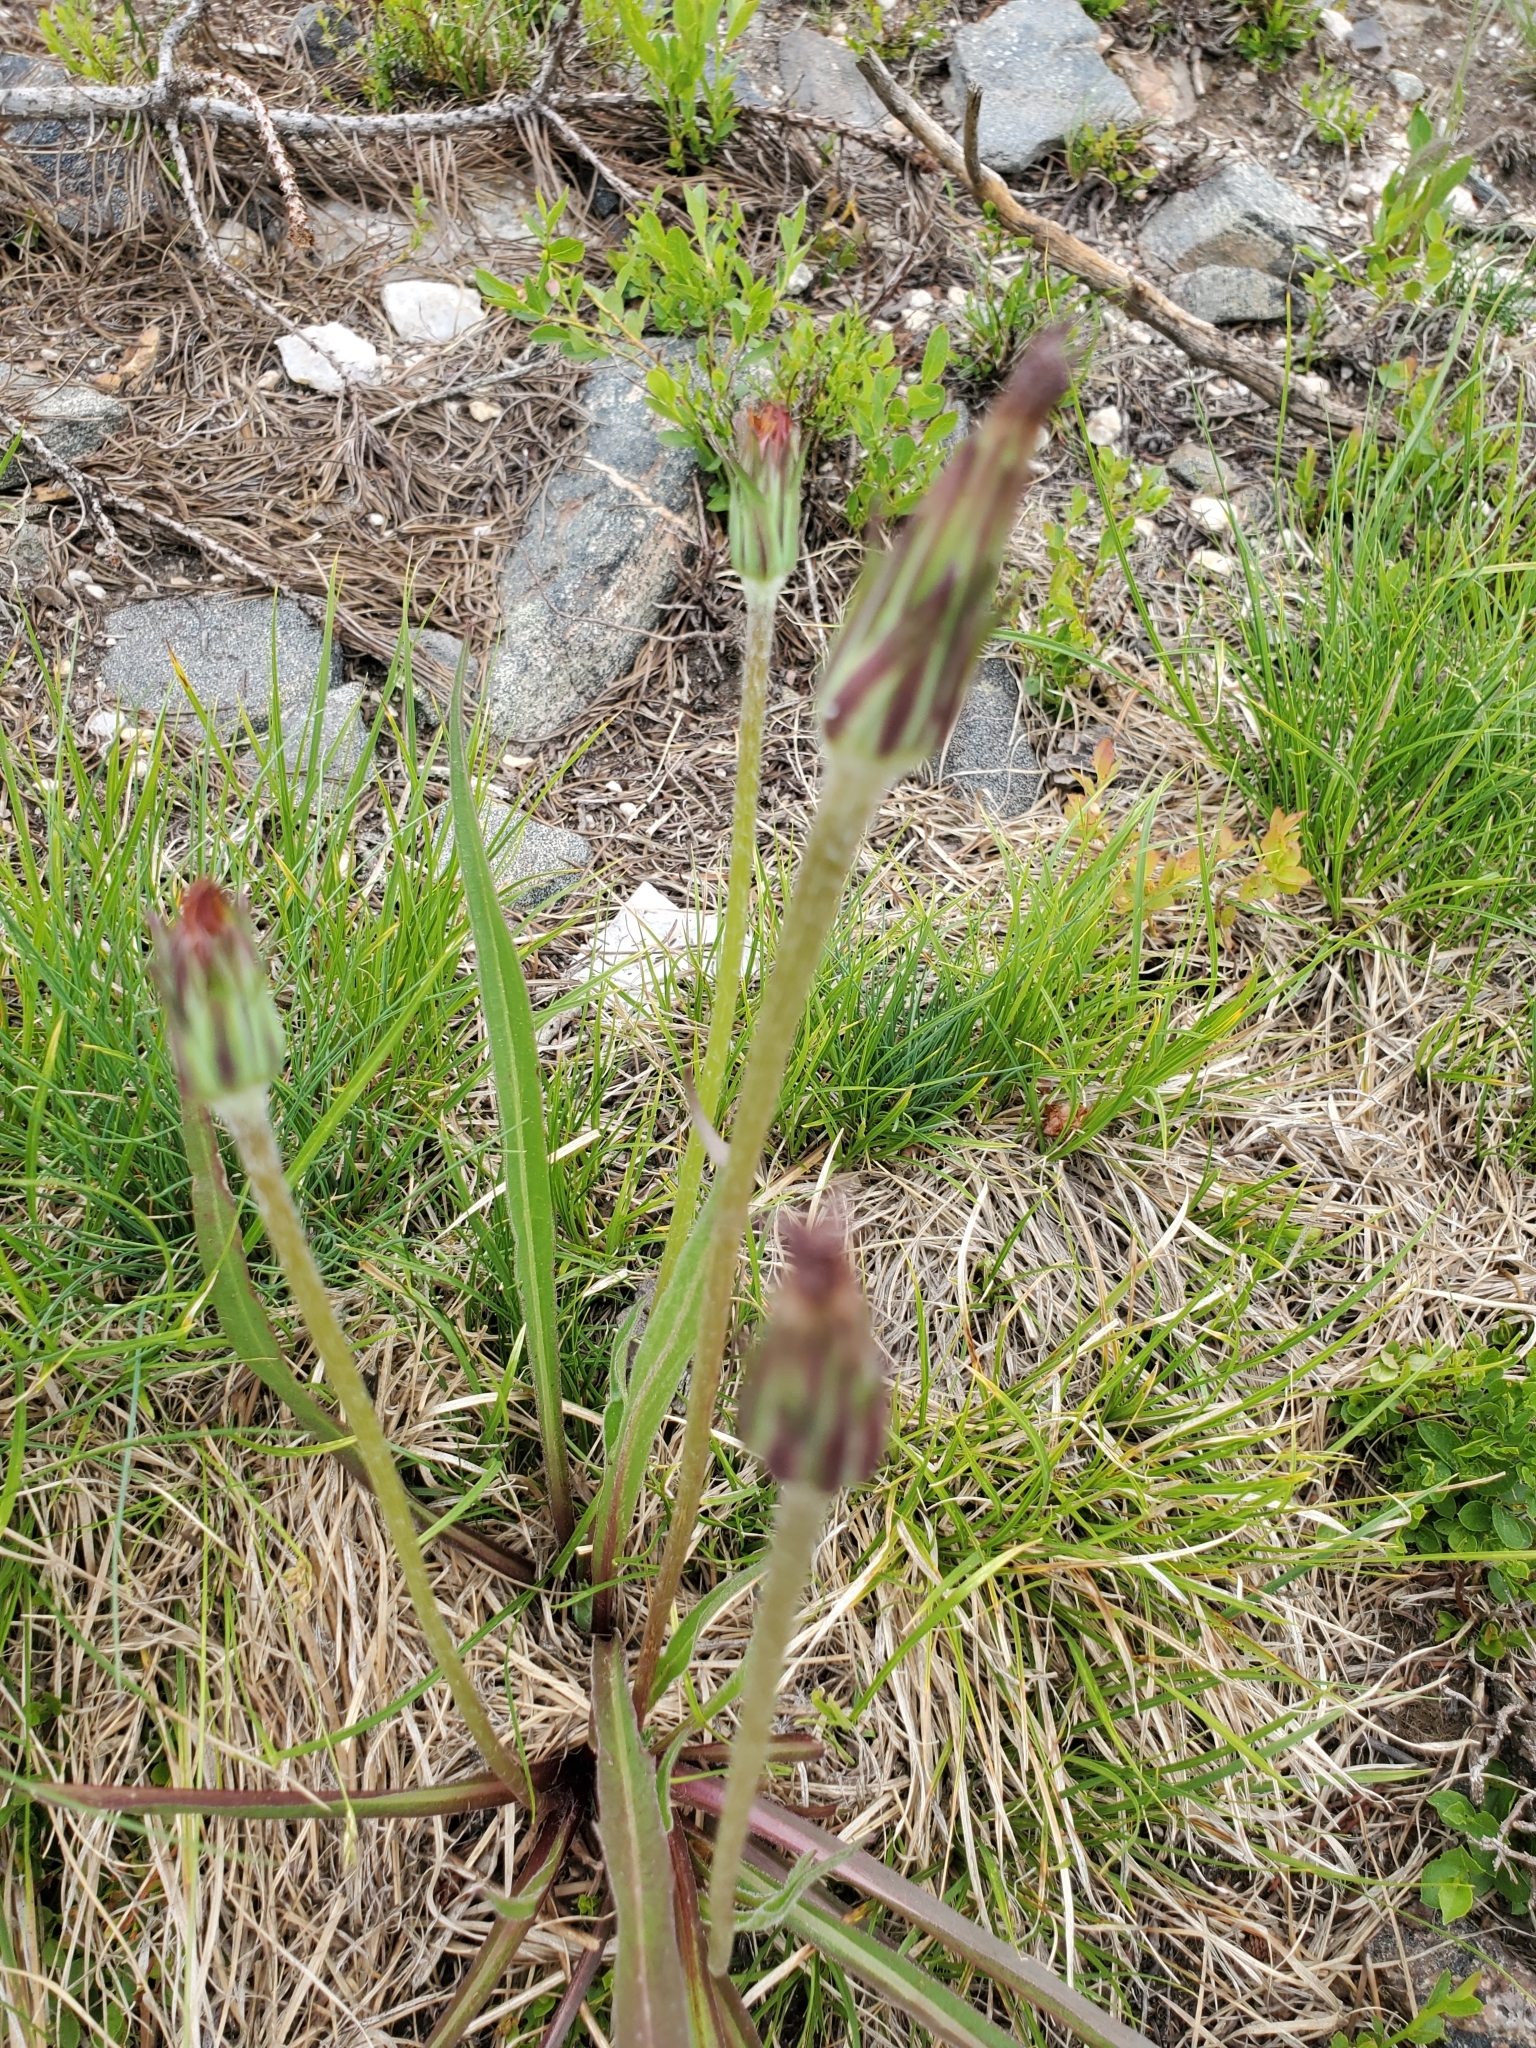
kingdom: Plantae
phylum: Tracheophyta
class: Magnoliopsida
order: Asterales
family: Asteraceae
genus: Agoseris
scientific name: Agoseris aurantiaca
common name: Mountain agoseris
